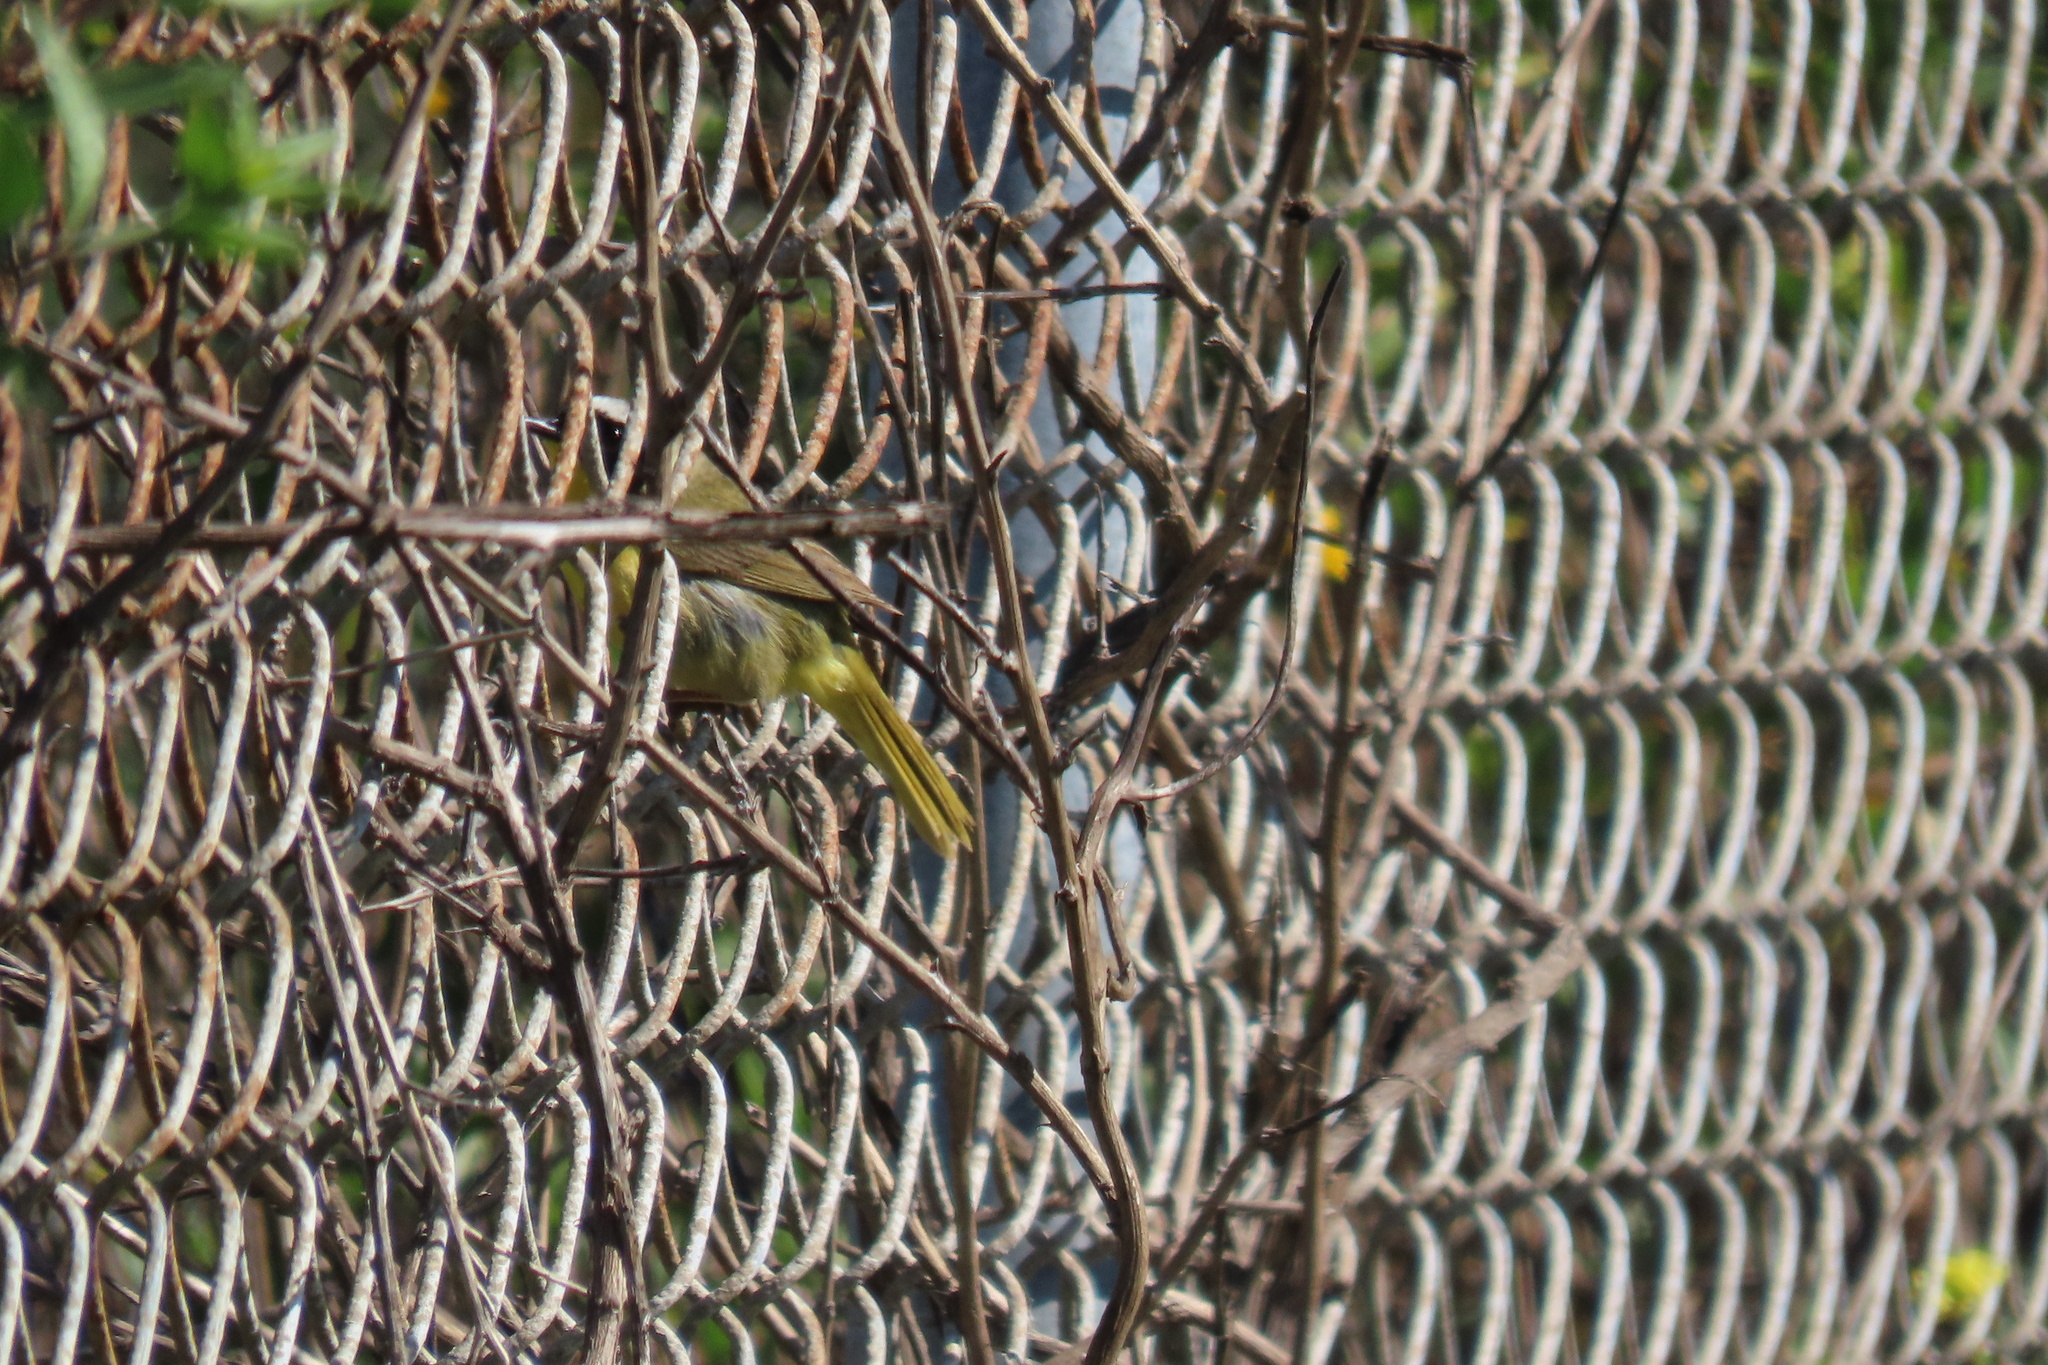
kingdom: Animalia
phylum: Chordata
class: Aves
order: Passeriformes
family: Parulidae
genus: Geothlypis
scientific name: Geothlypis trichas
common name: Common yellowthroat
